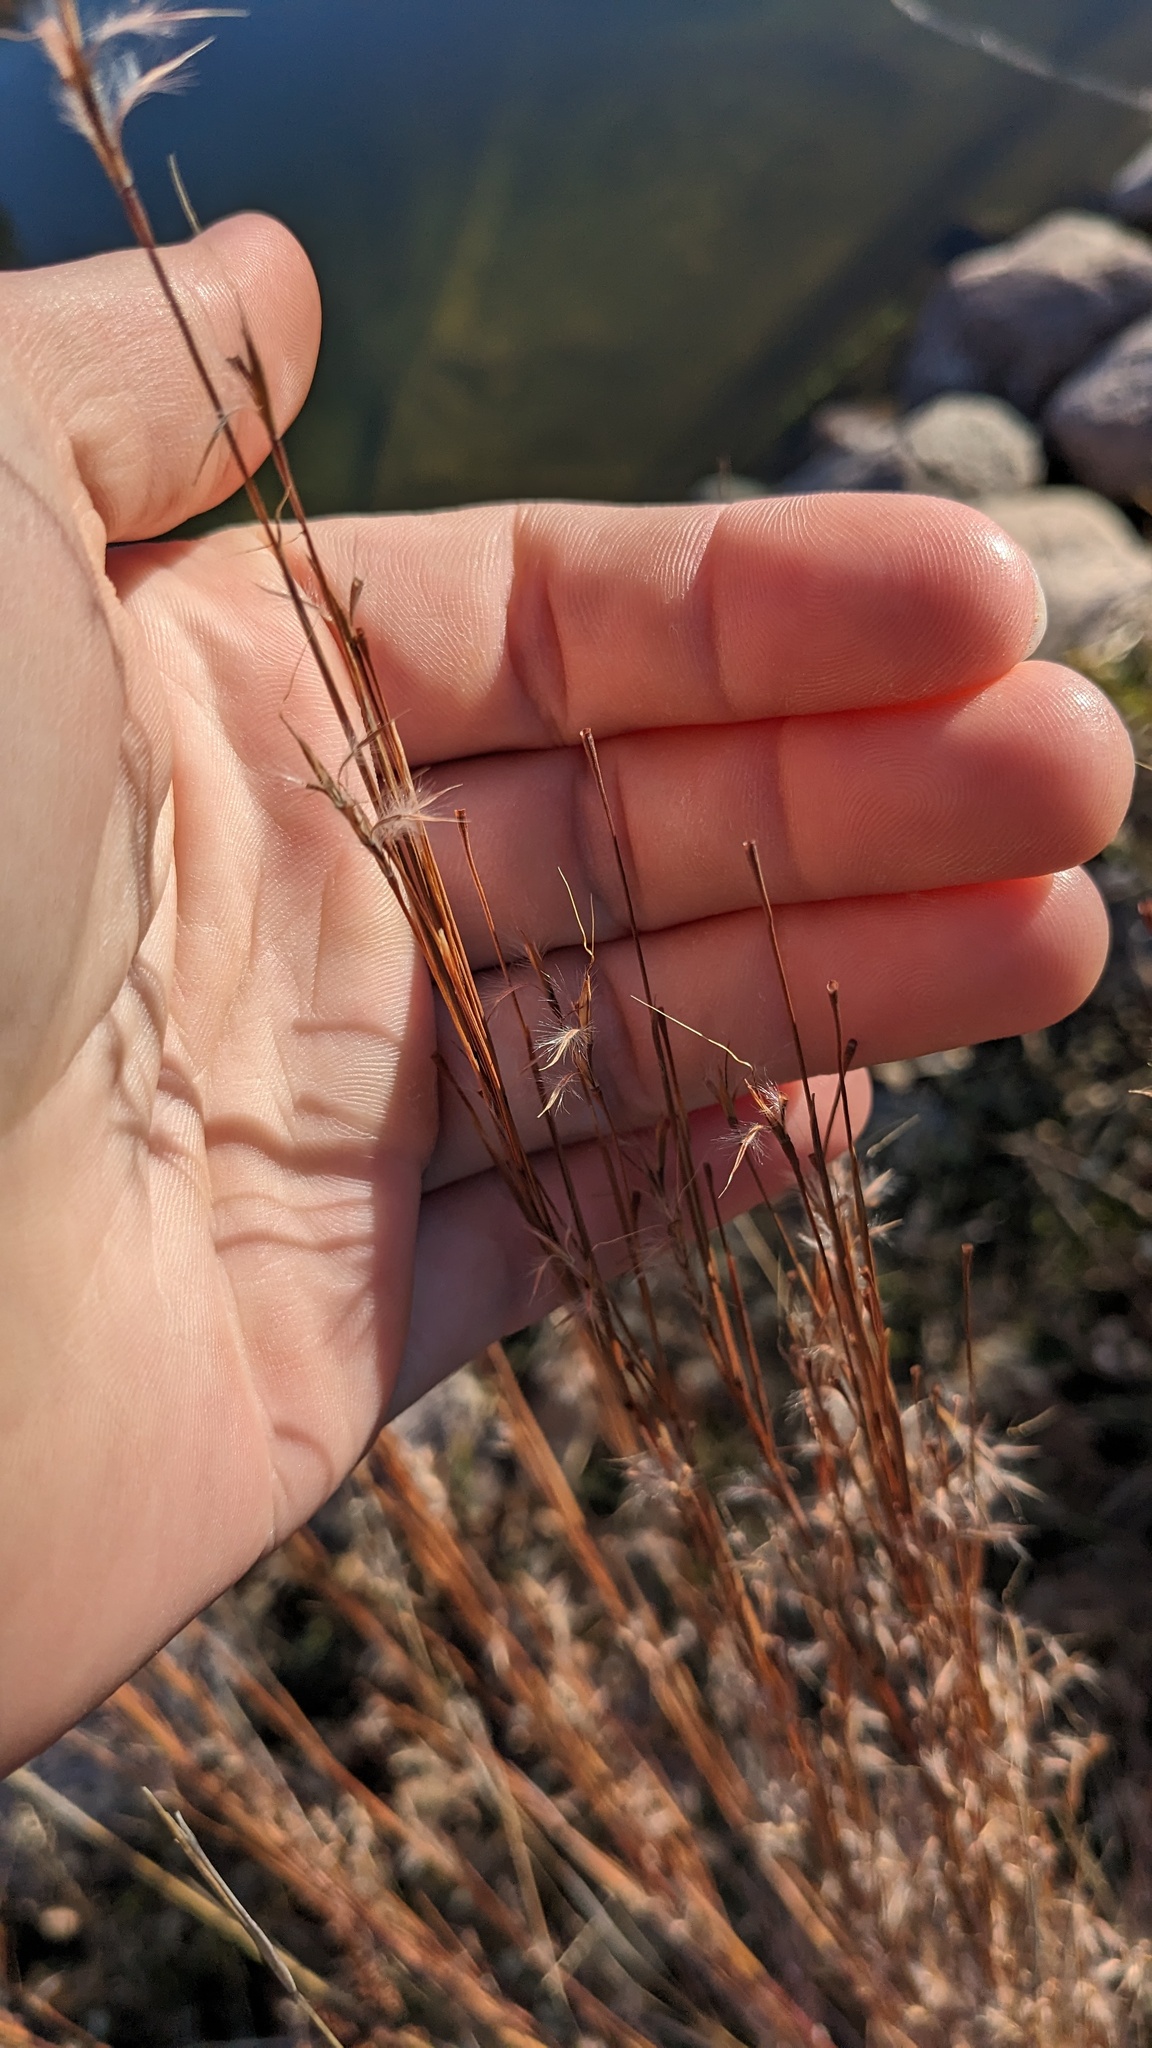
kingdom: Plantae
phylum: Tracheophyta
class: Liliopsida
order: Poales
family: Poaceae
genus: Schizachyrium
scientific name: Schizachyrium scoparium
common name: Little bluestem
